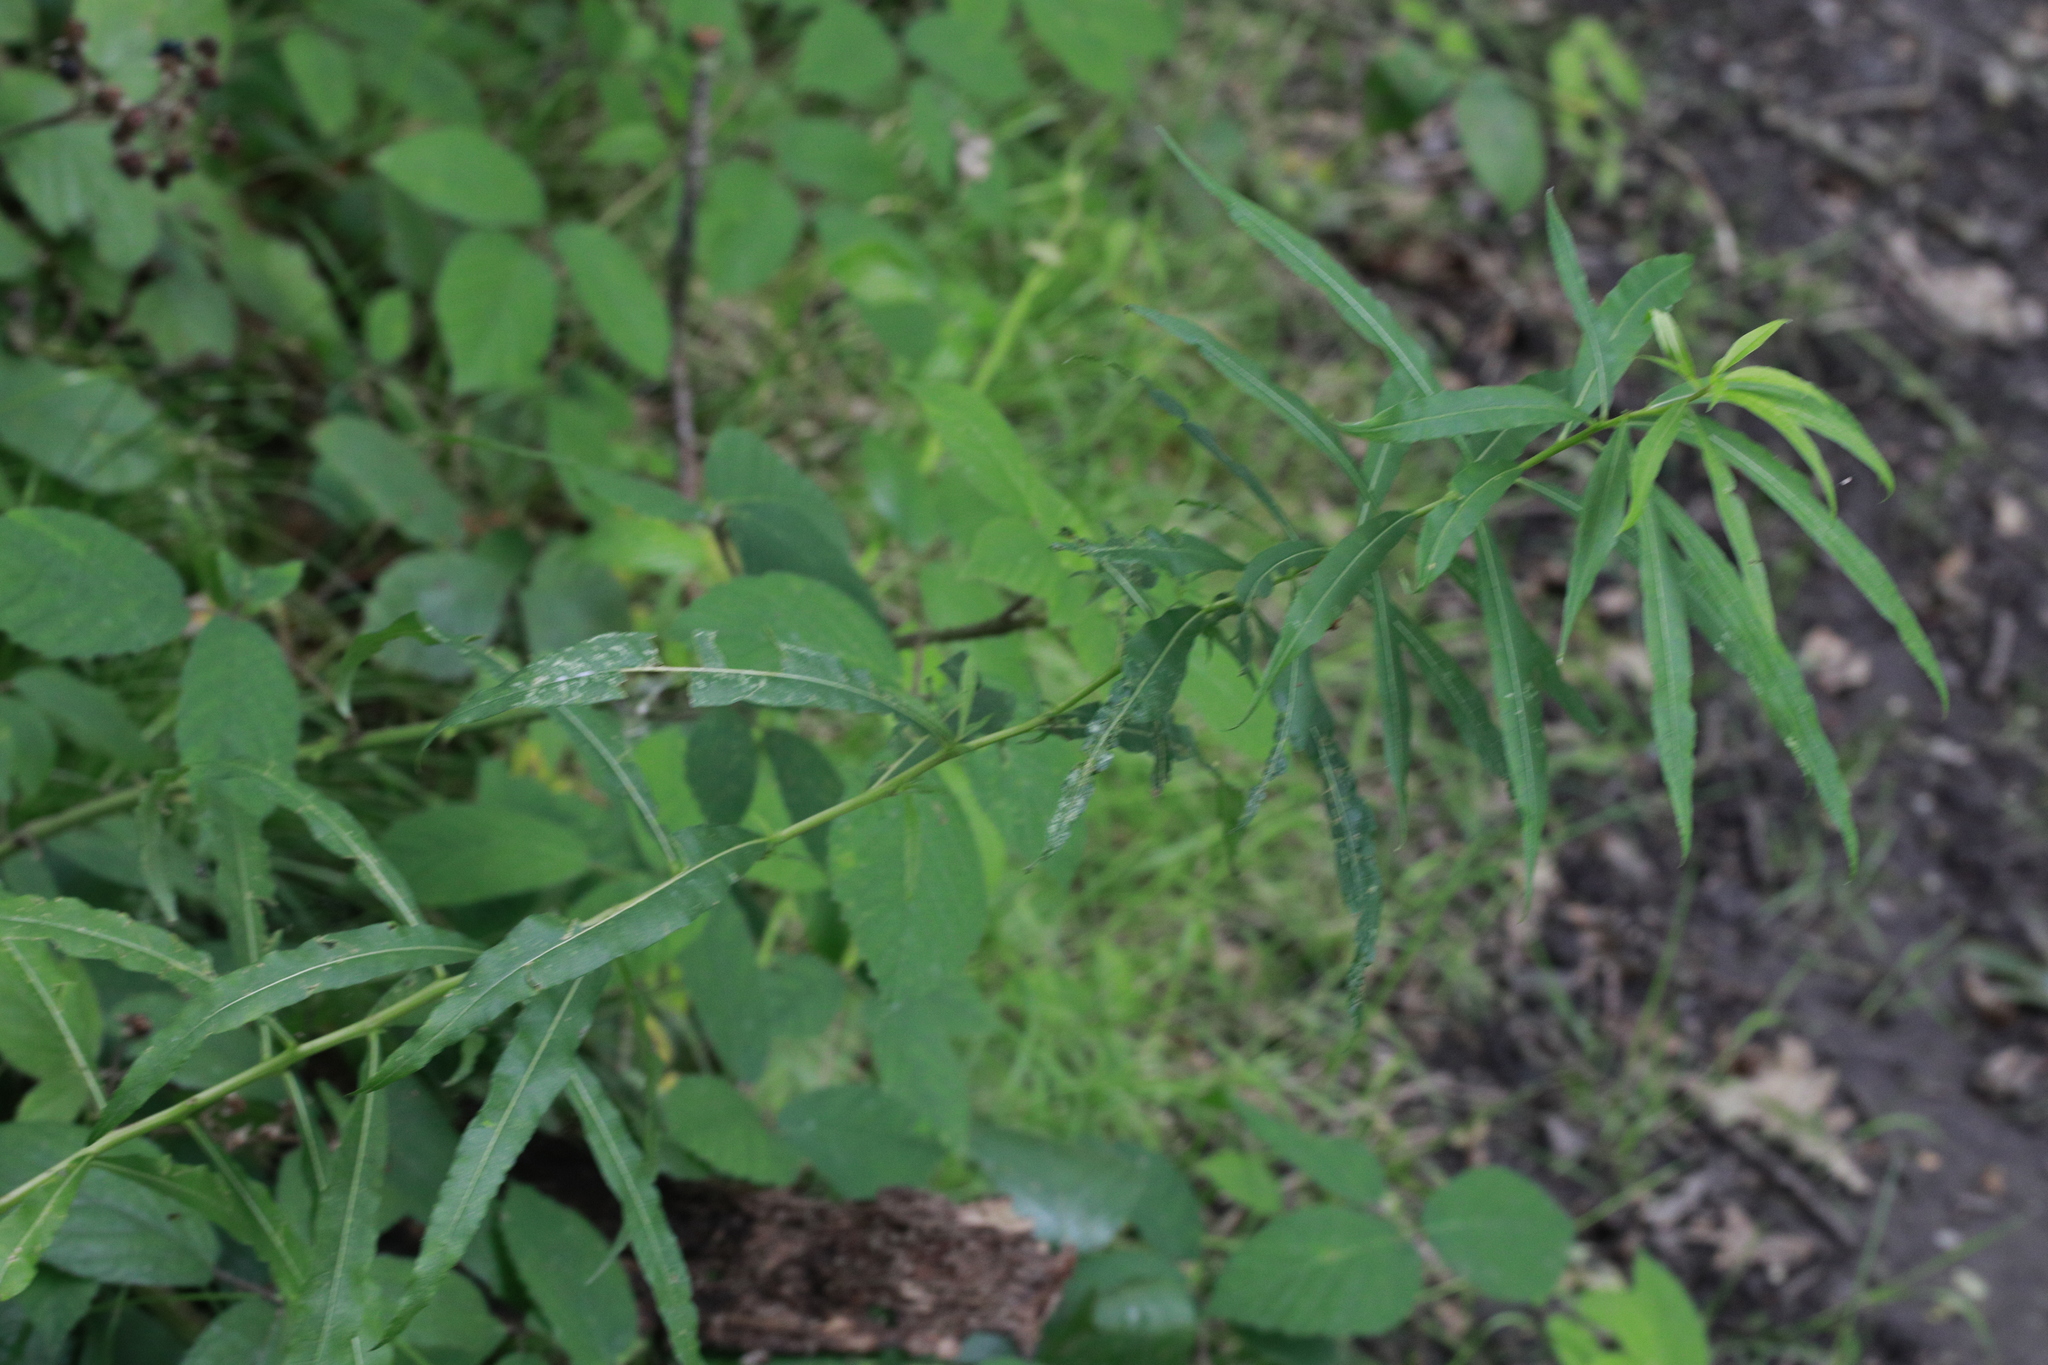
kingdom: Plantae
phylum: Tracheophyta
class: Magnoliopsida
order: Myrtales
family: Onagraceae
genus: Chamaenerion
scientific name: Chamaenerion angustifolium
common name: Fireweed
